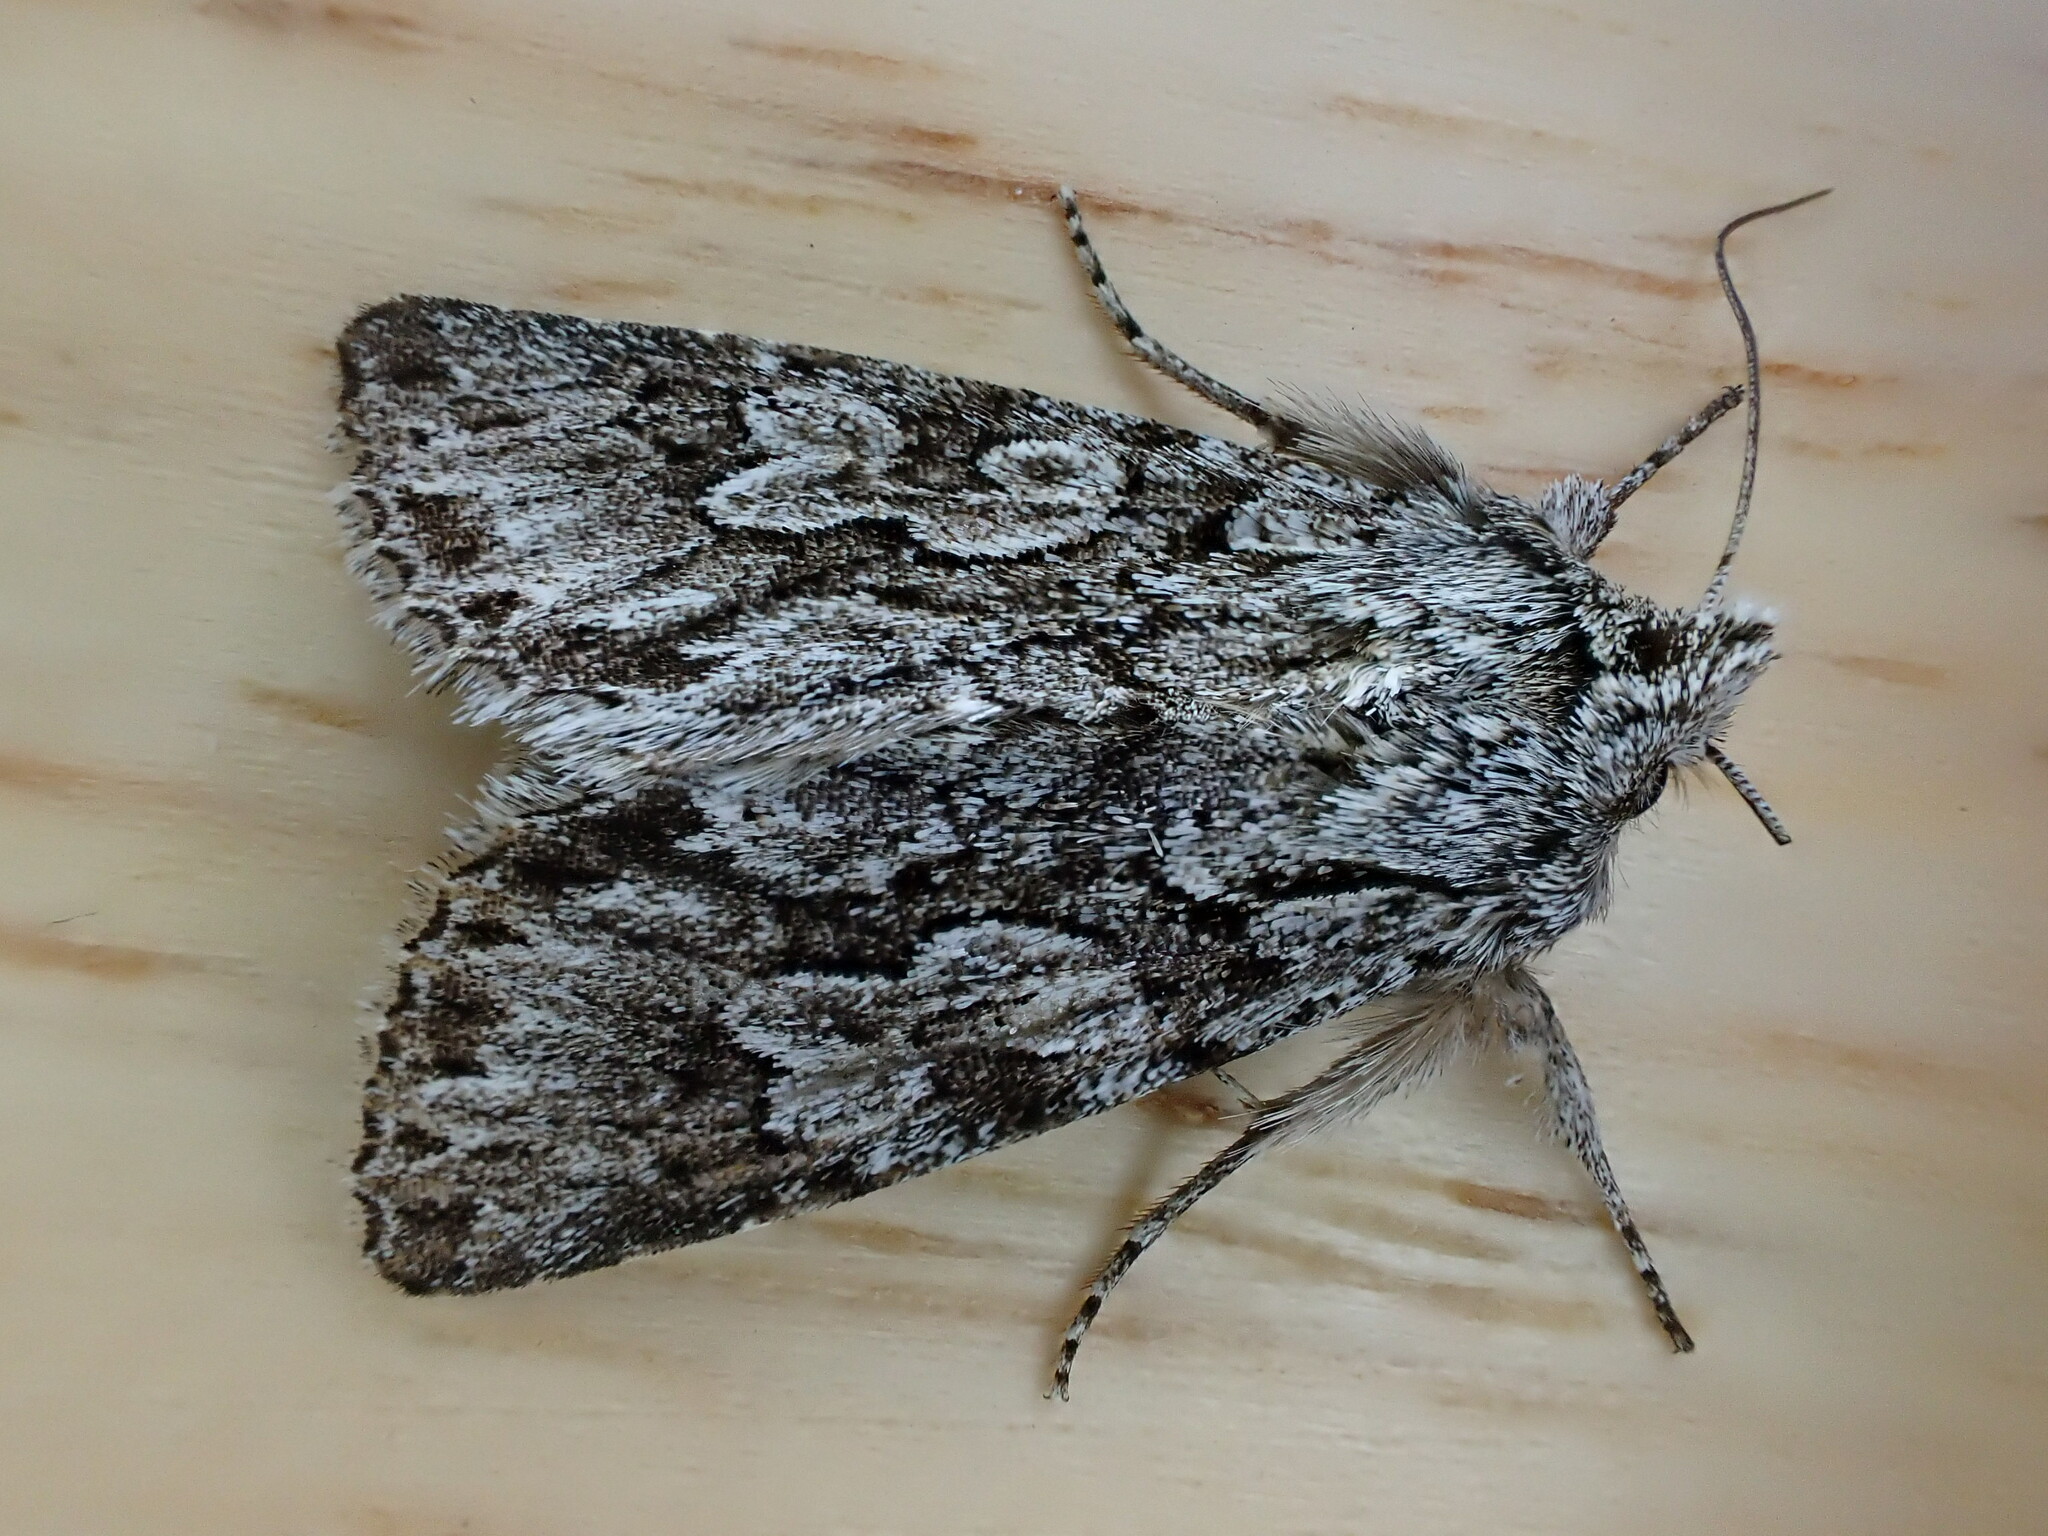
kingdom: Animalia
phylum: Arthropoda
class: Insecta
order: Lepidoptera
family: Noctuidae
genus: Xylocampa
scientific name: Xylocampa areola
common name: Early grey
